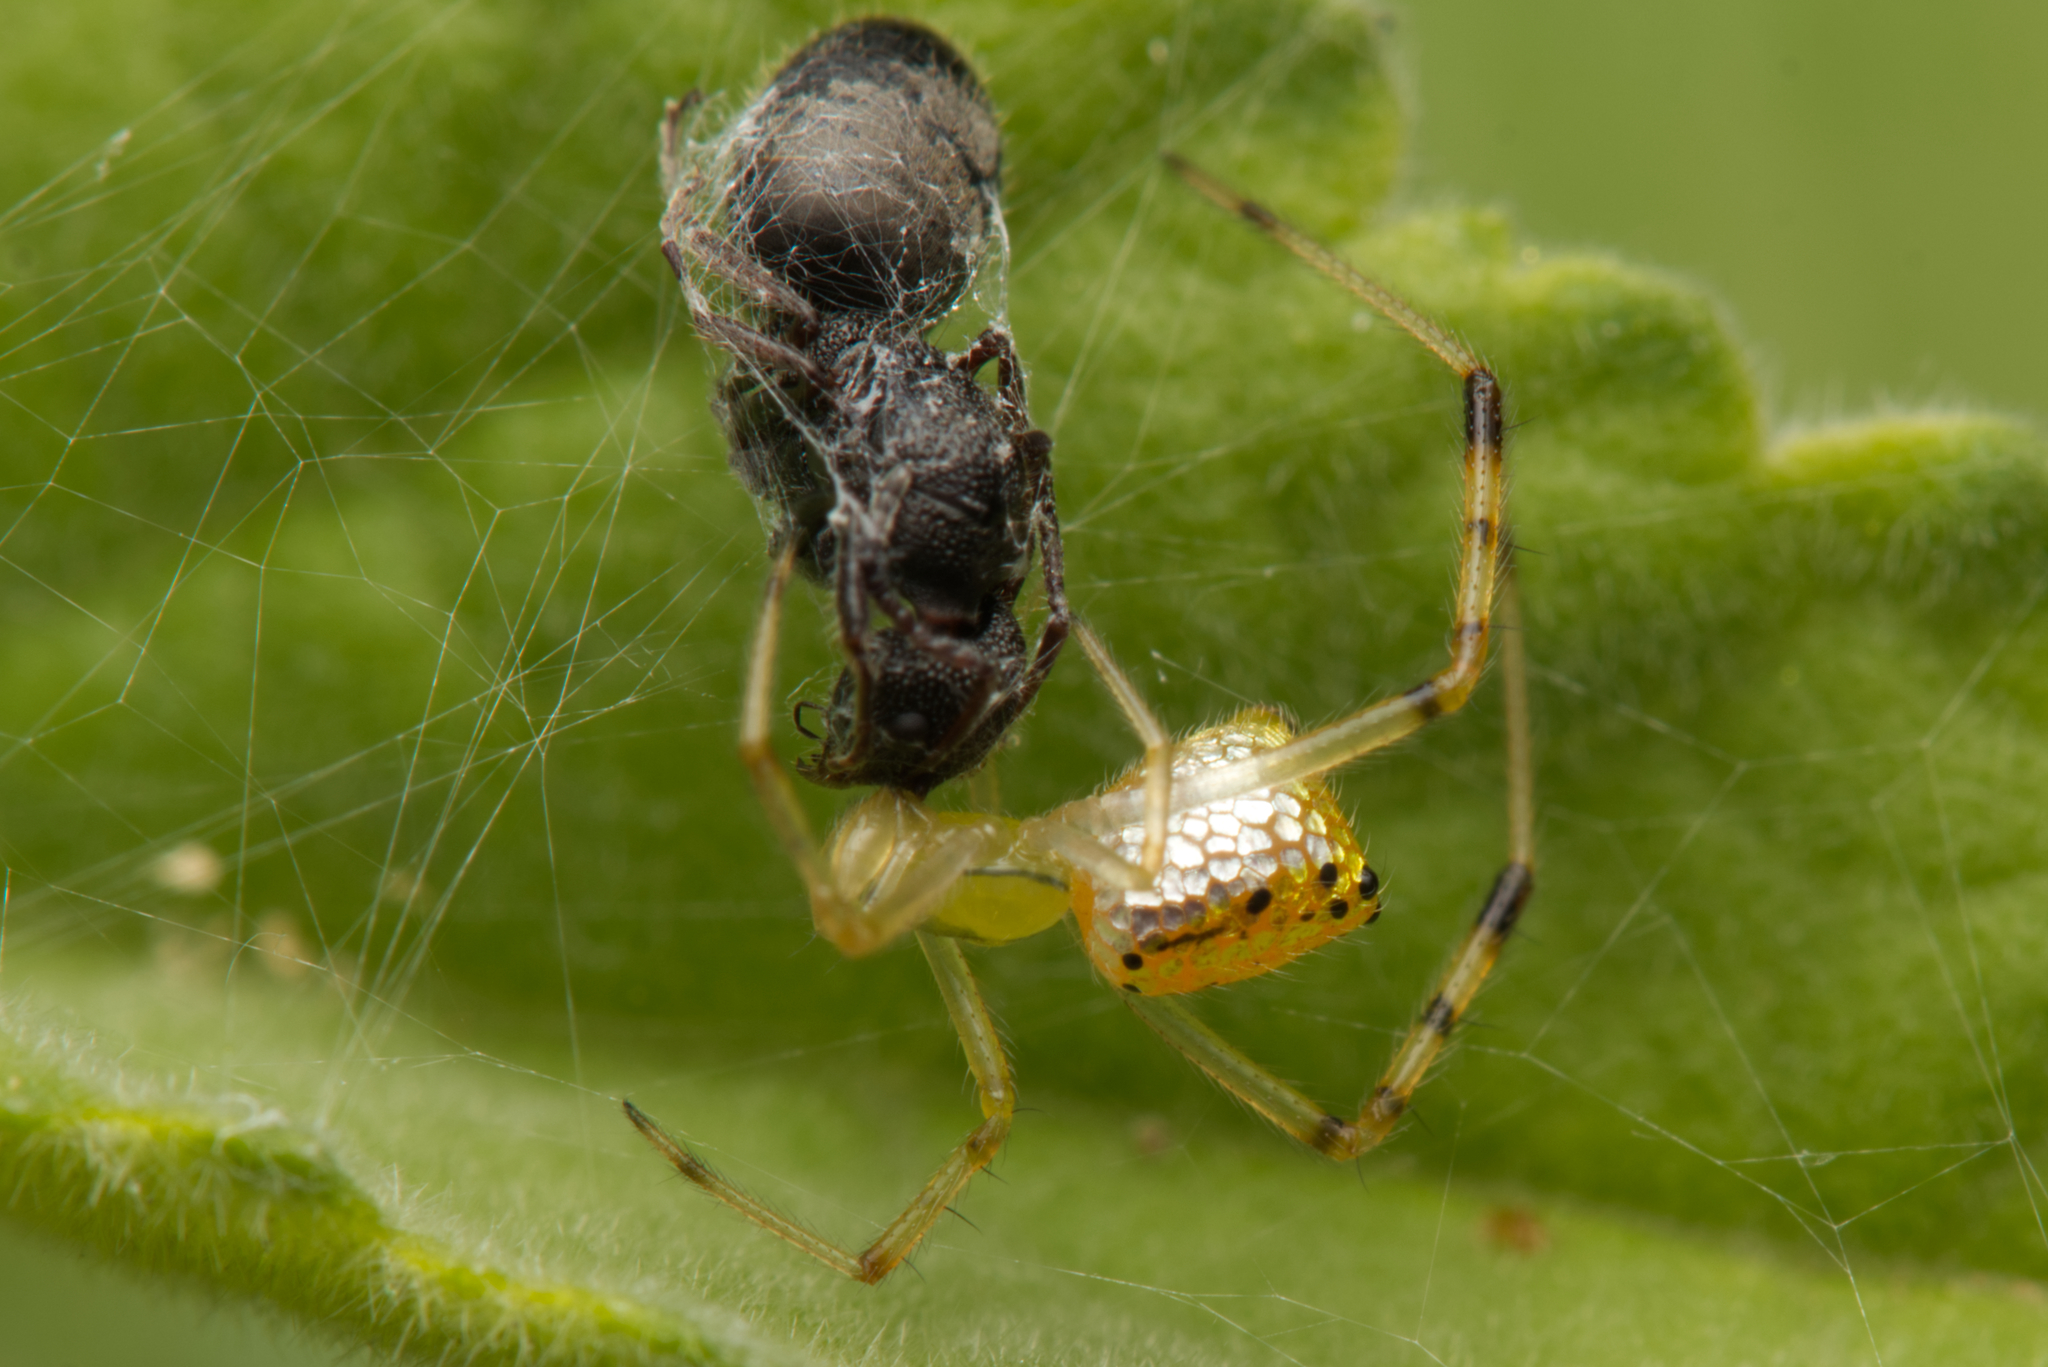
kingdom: Animalia
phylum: Arthropoda
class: Arachnida
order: Araneae
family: Theridiidae
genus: Thwaitesia
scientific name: Thwaitesia nigronodosa
